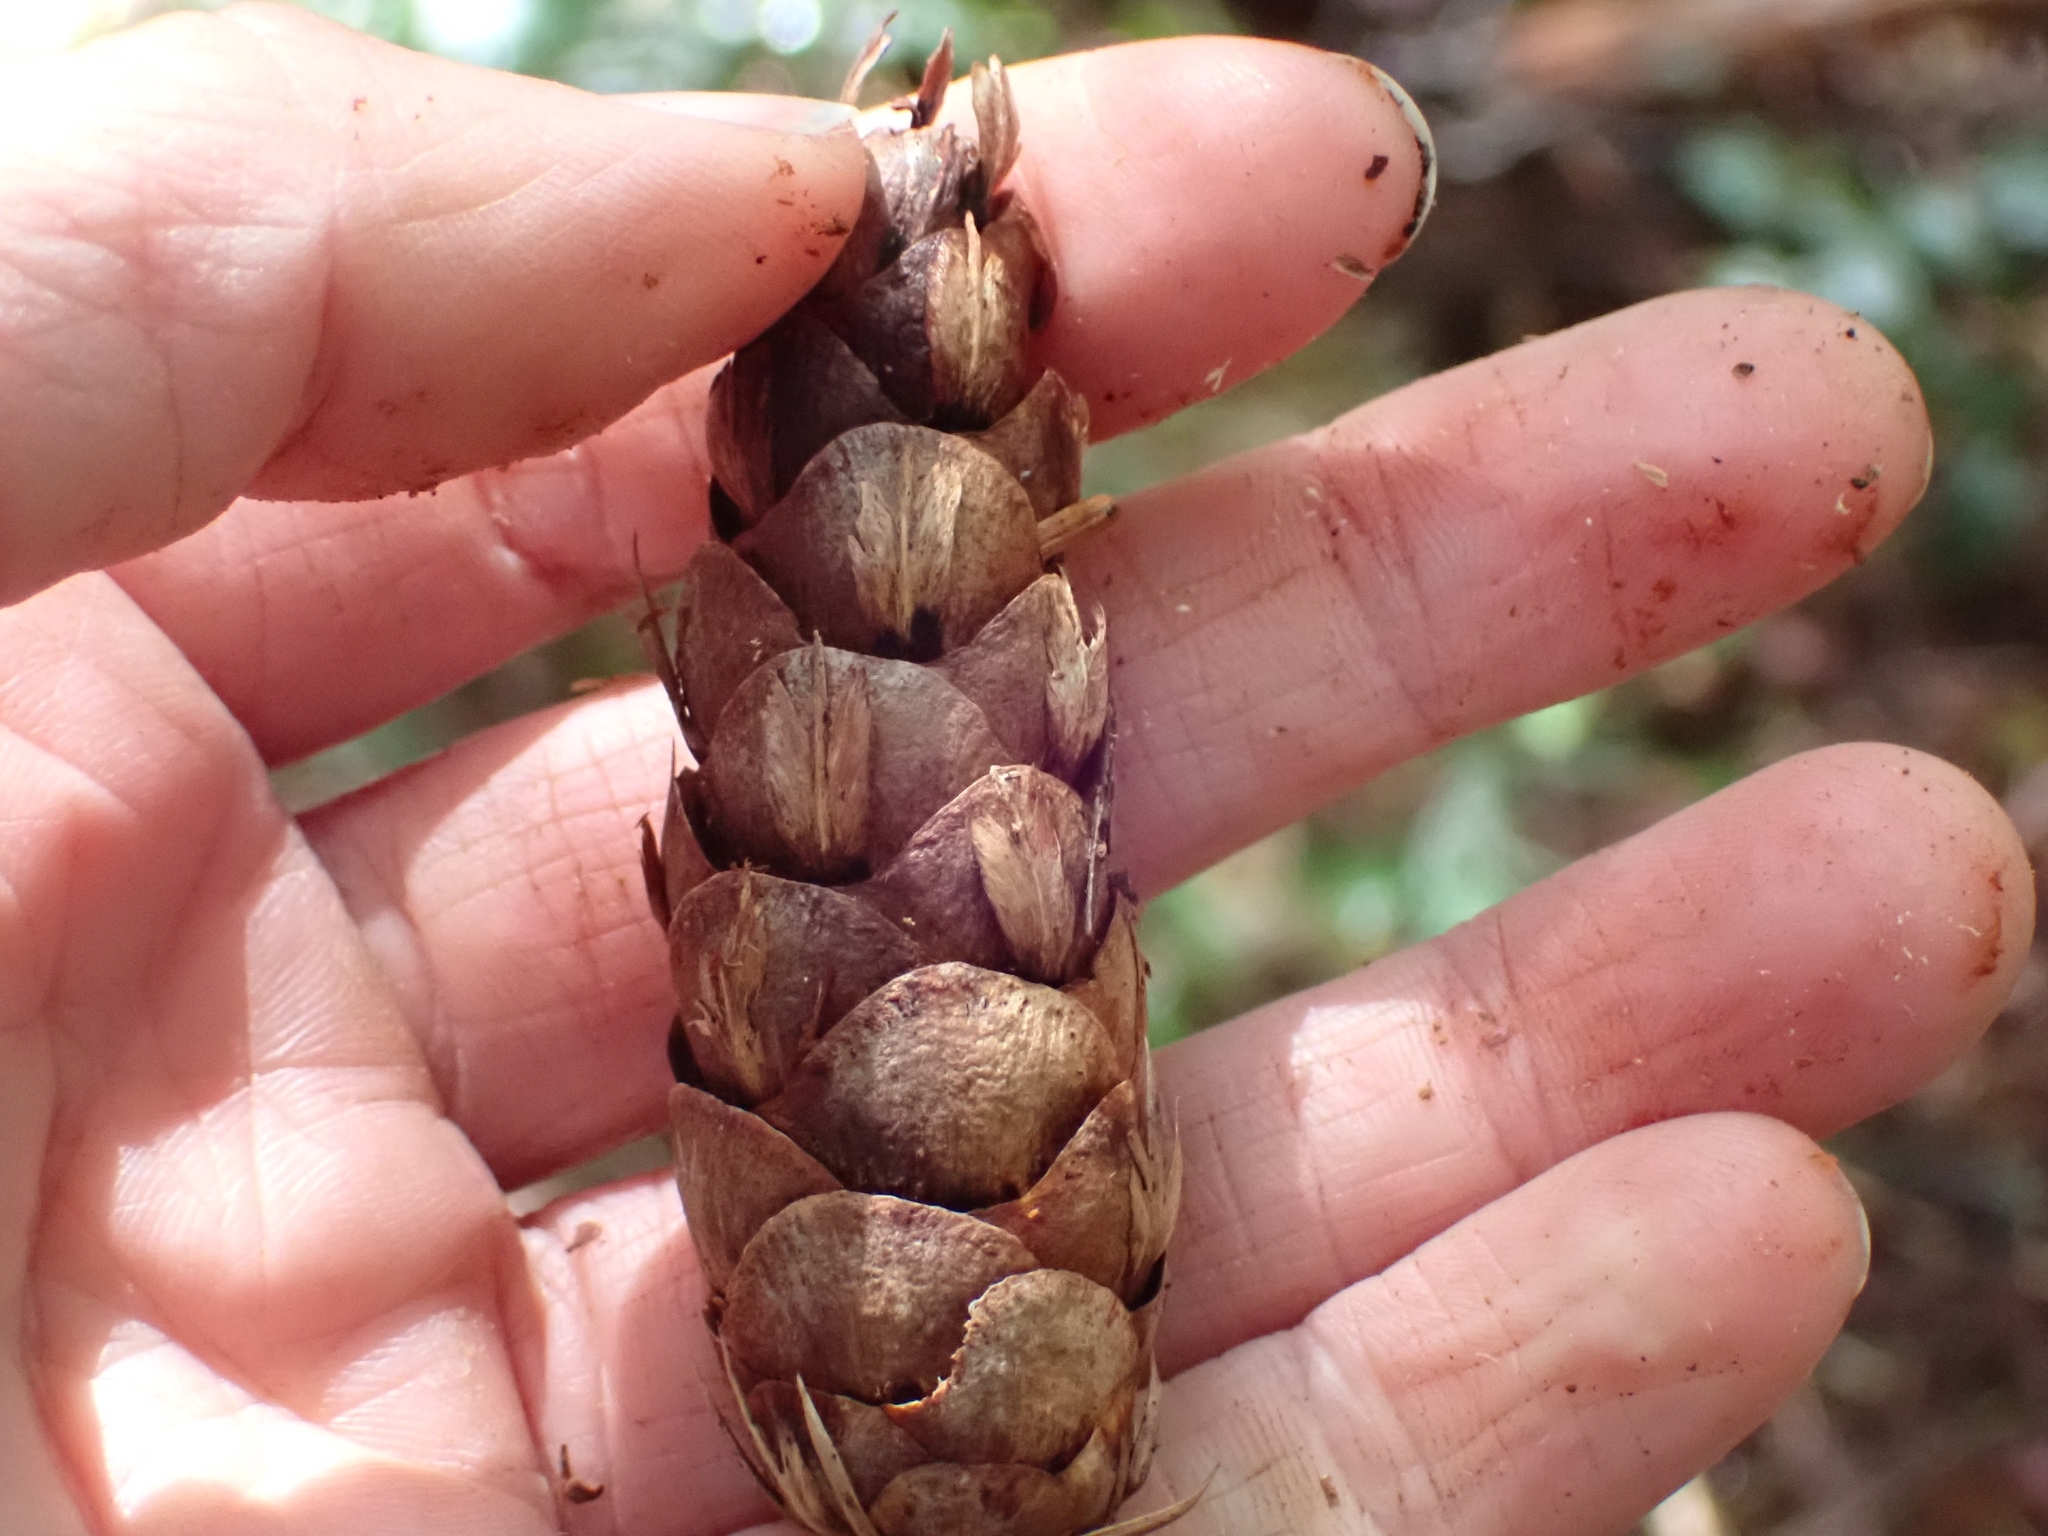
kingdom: Plantae
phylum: Tracheophyta
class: Pinopsida
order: Pinales
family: Pinaceae
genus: Pseudotsuga
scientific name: Pseudotsuga menziesii
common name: Douglas fir
